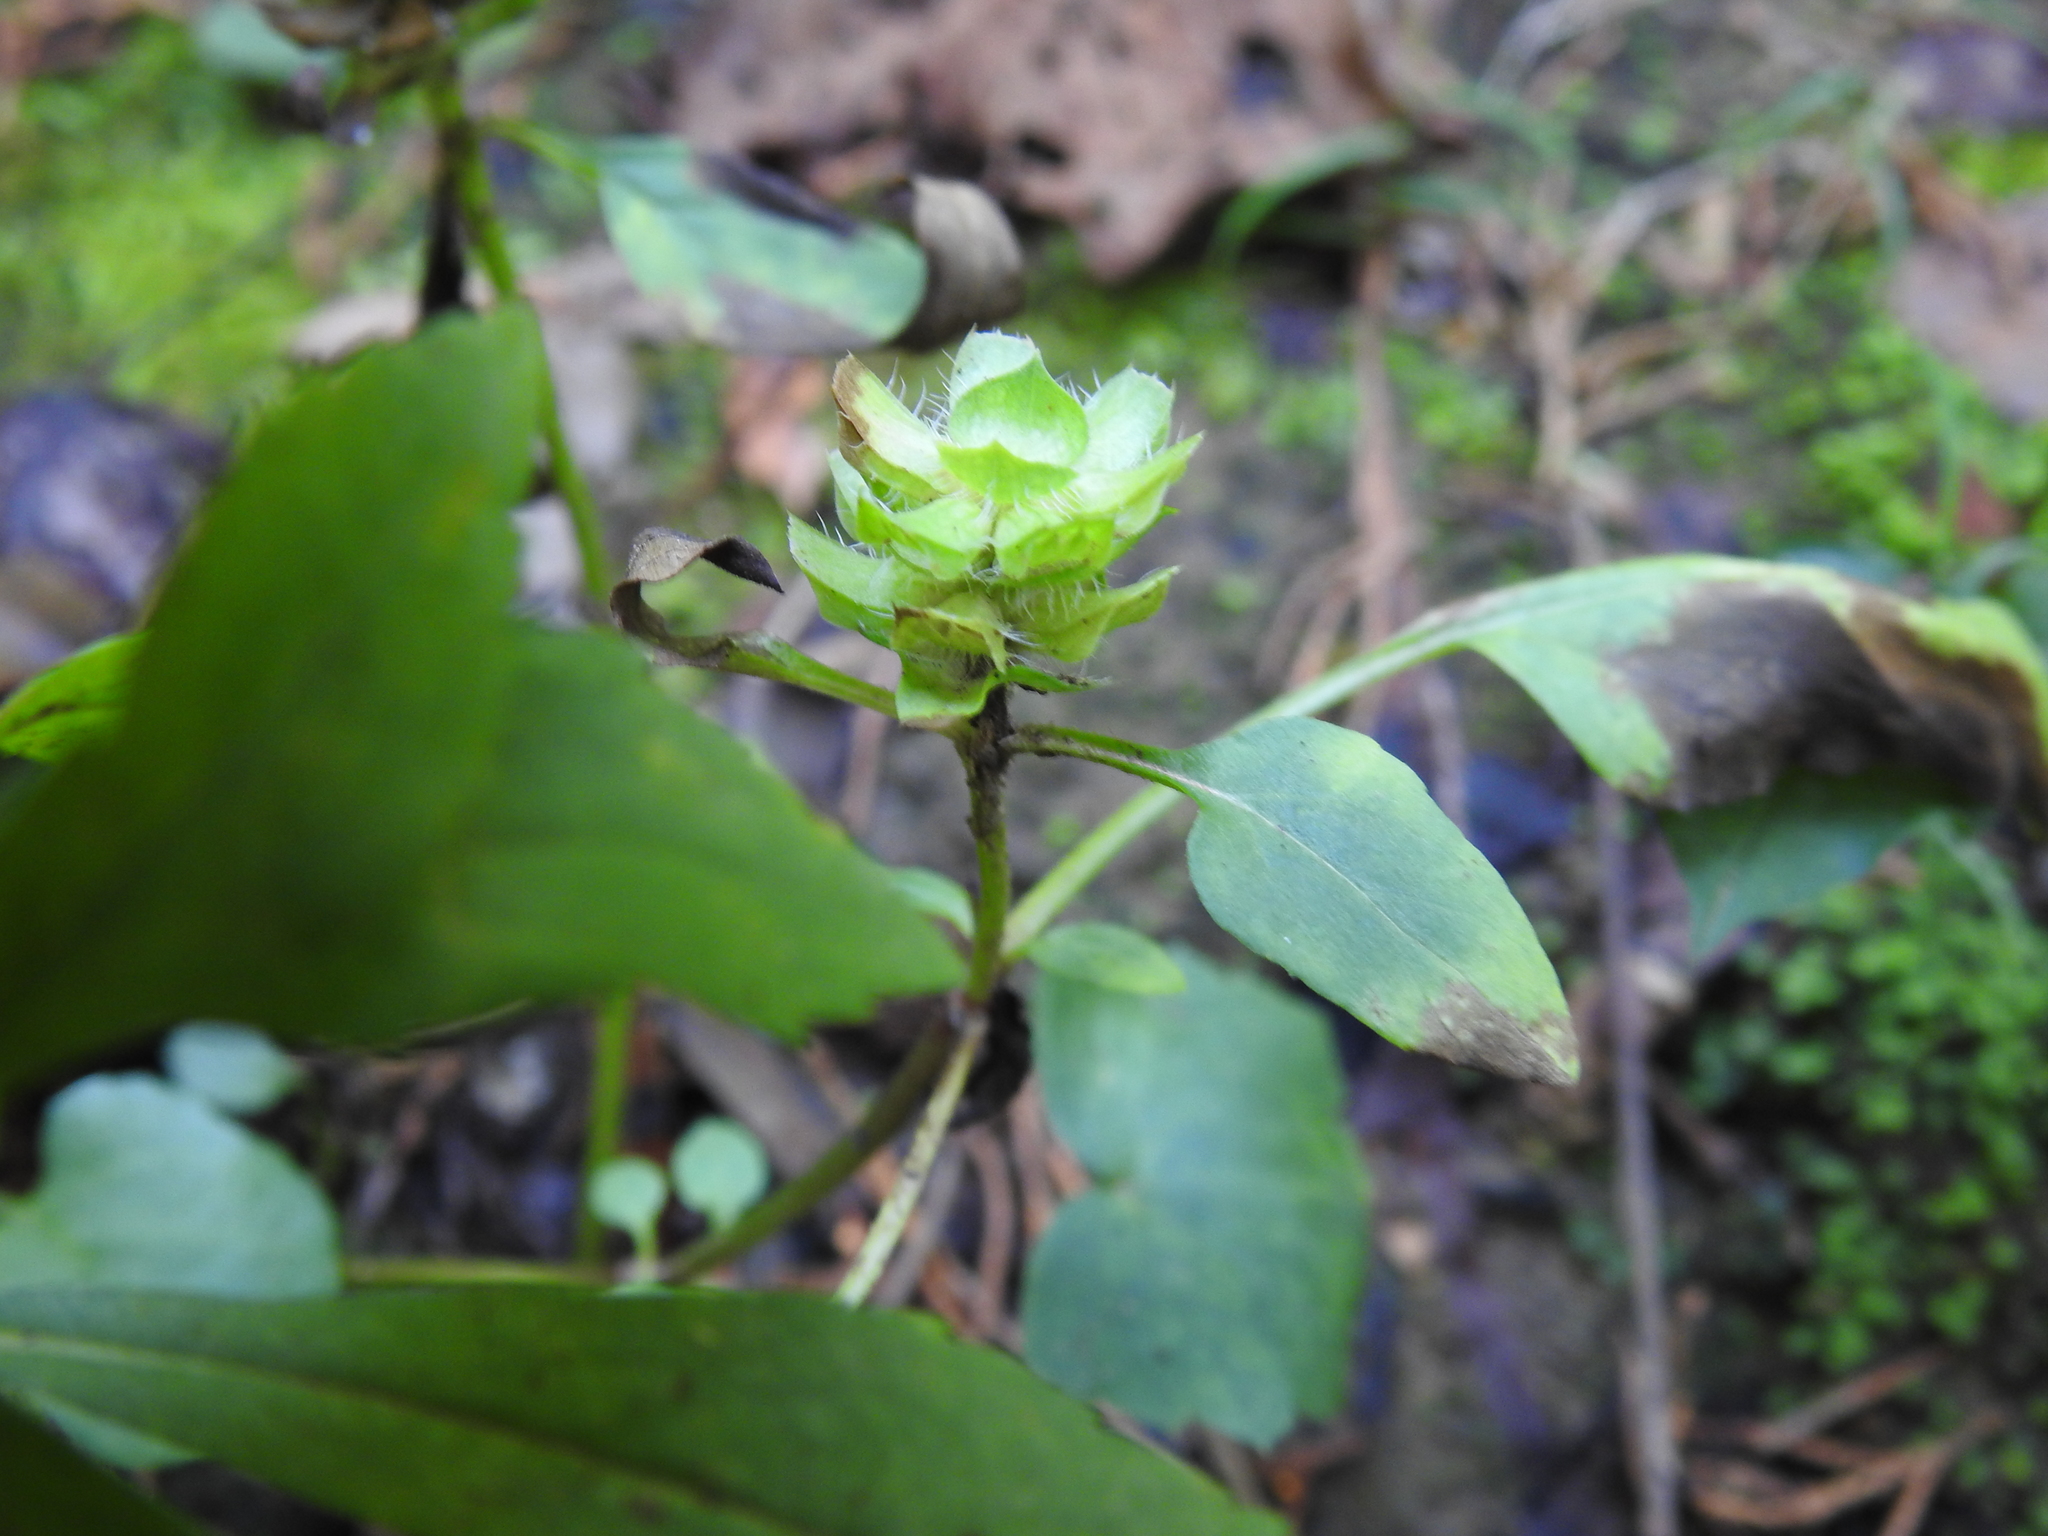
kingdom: Plantae
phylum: Tracheophyta
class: Magnoliopsida
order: Lamiales
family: Lamiaceae
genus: Prunella
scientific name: Prunella vulgaris
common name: Heal-all
